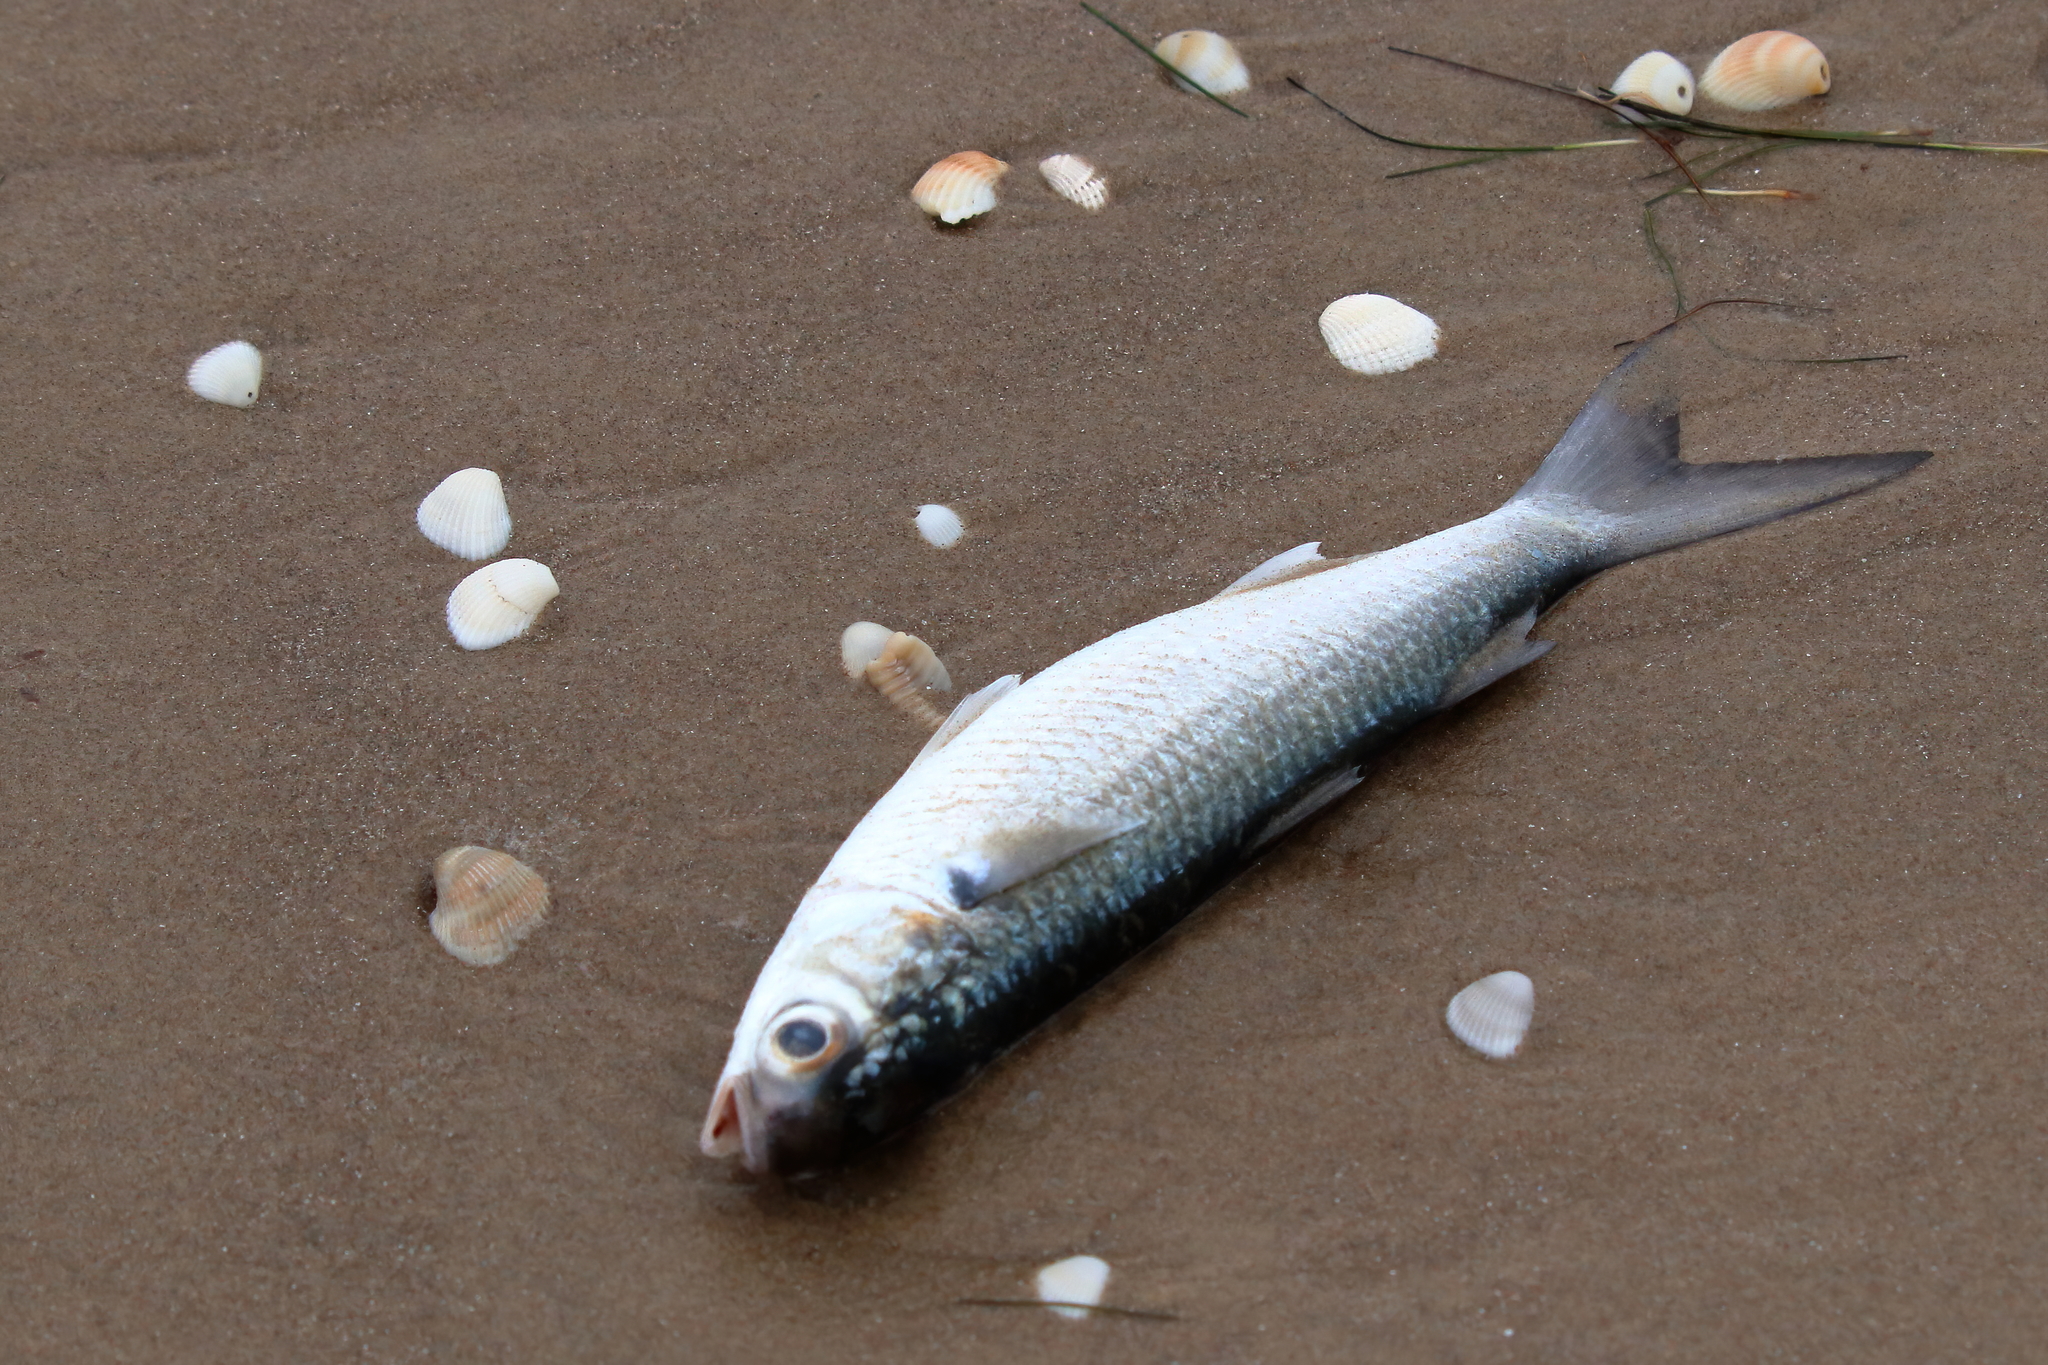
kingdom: Animalia
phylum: Chordata
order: Mugiliformes
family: Mugilidae
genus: Mugil
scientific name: Mugil curema
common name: White mullet
